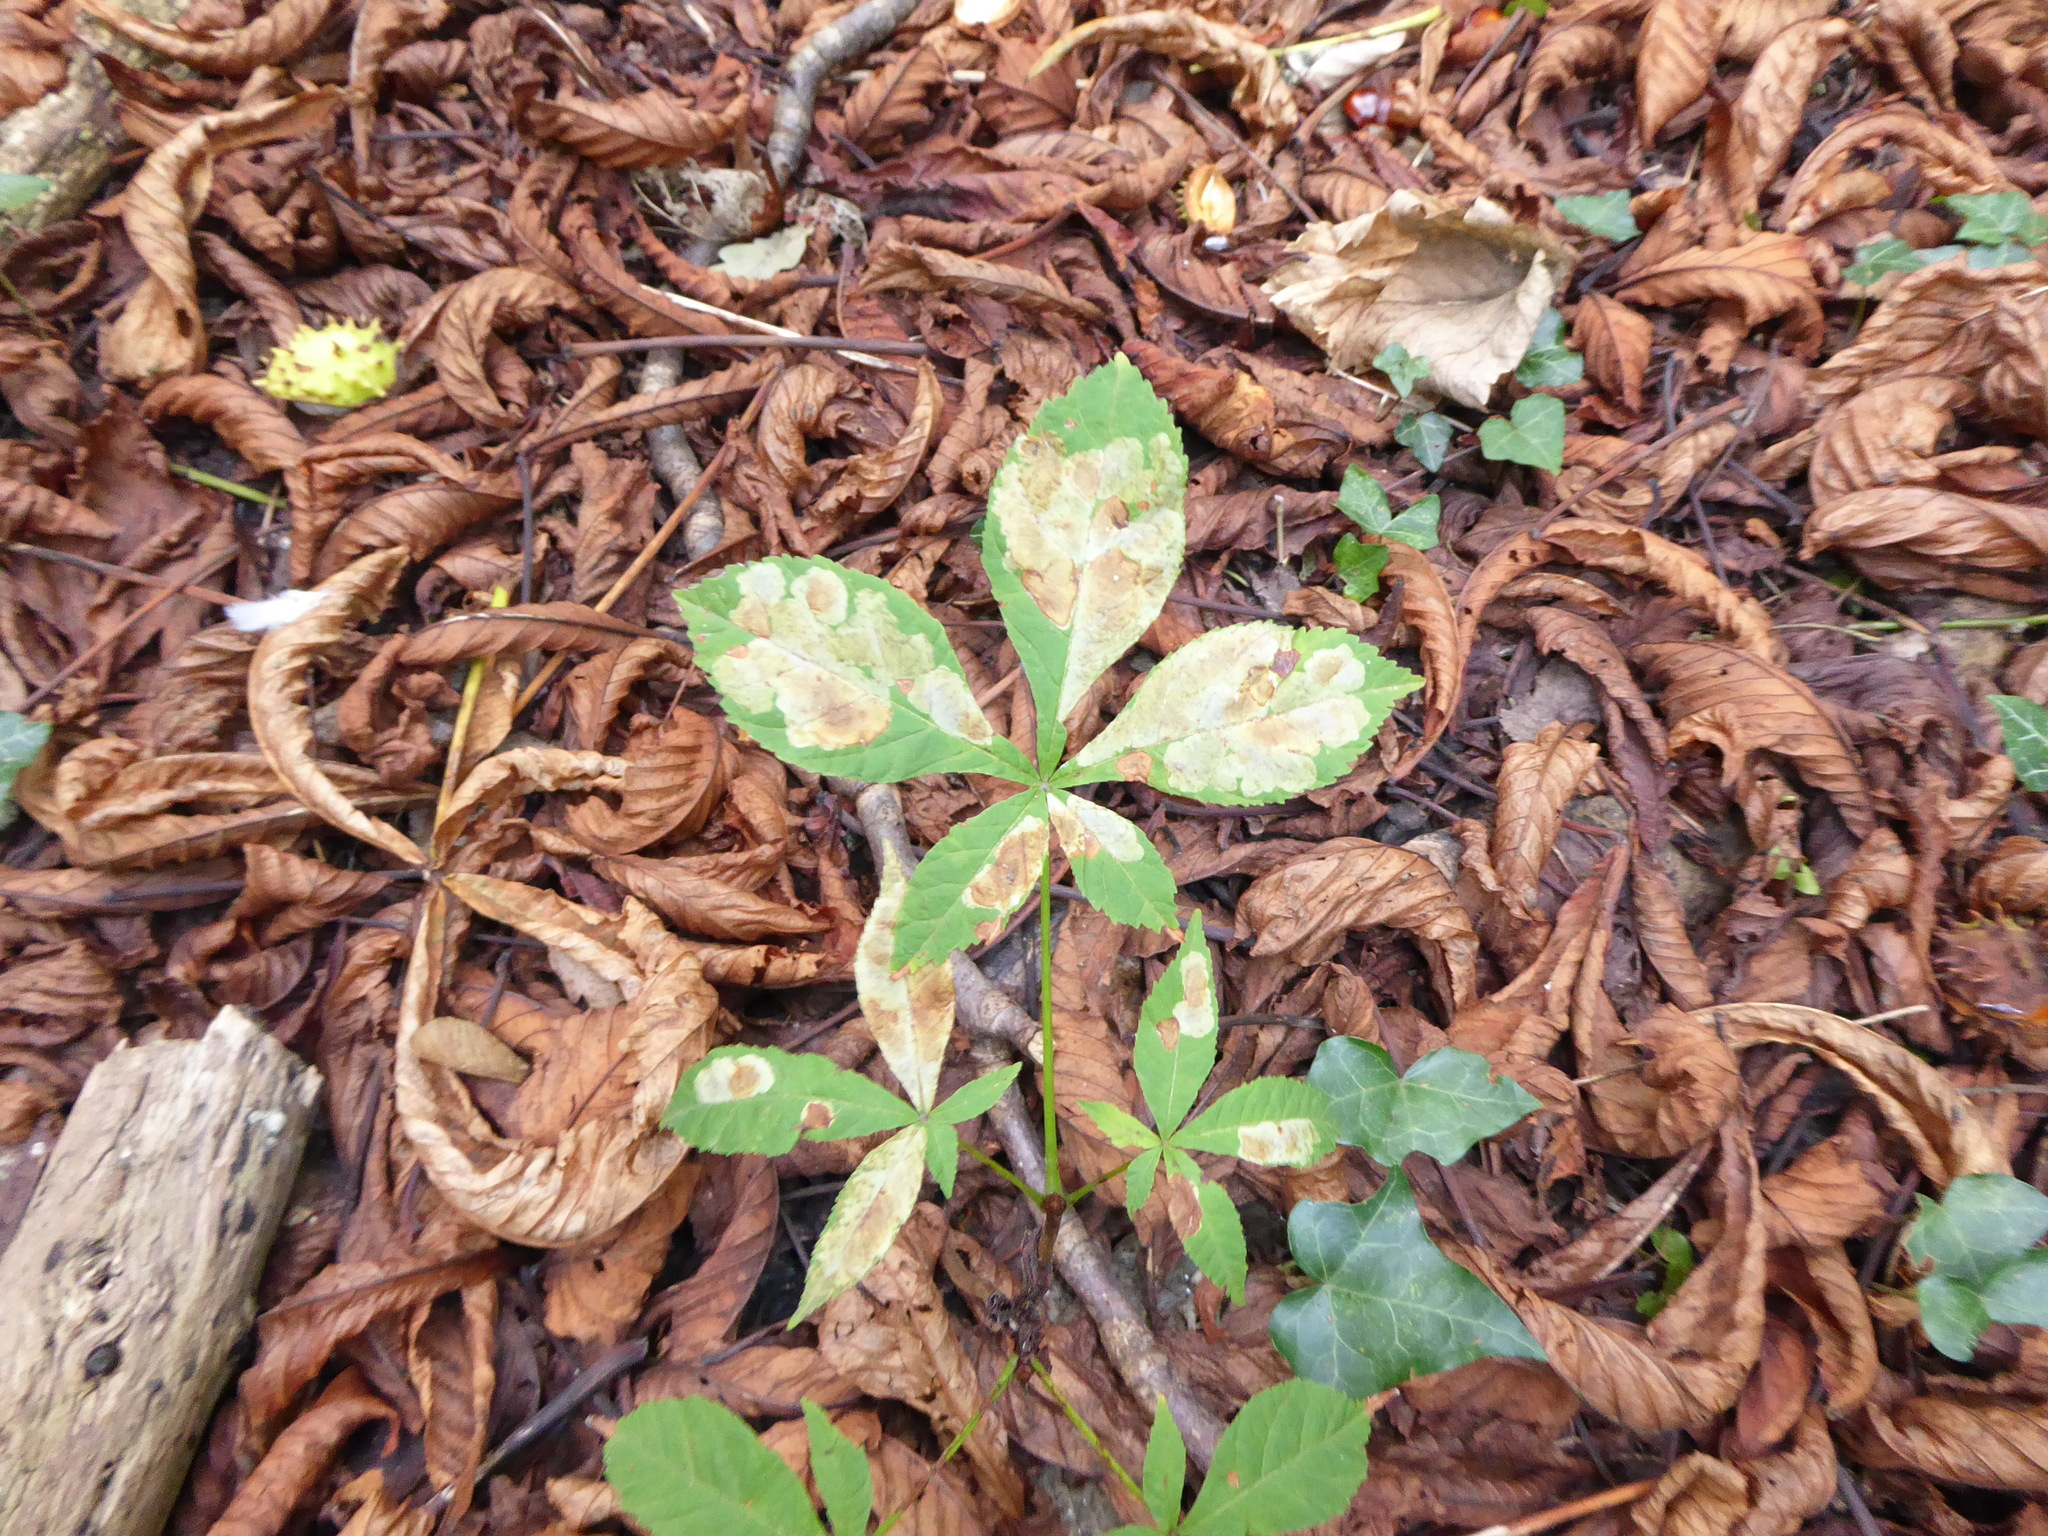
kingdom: Animalia
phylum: Arthropoda
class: Insecta
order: Lepidoptera
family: Gracillariidae
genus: Cameraria
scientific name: Cameraria ohridella
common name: Horse-chestnut leaf-miner
